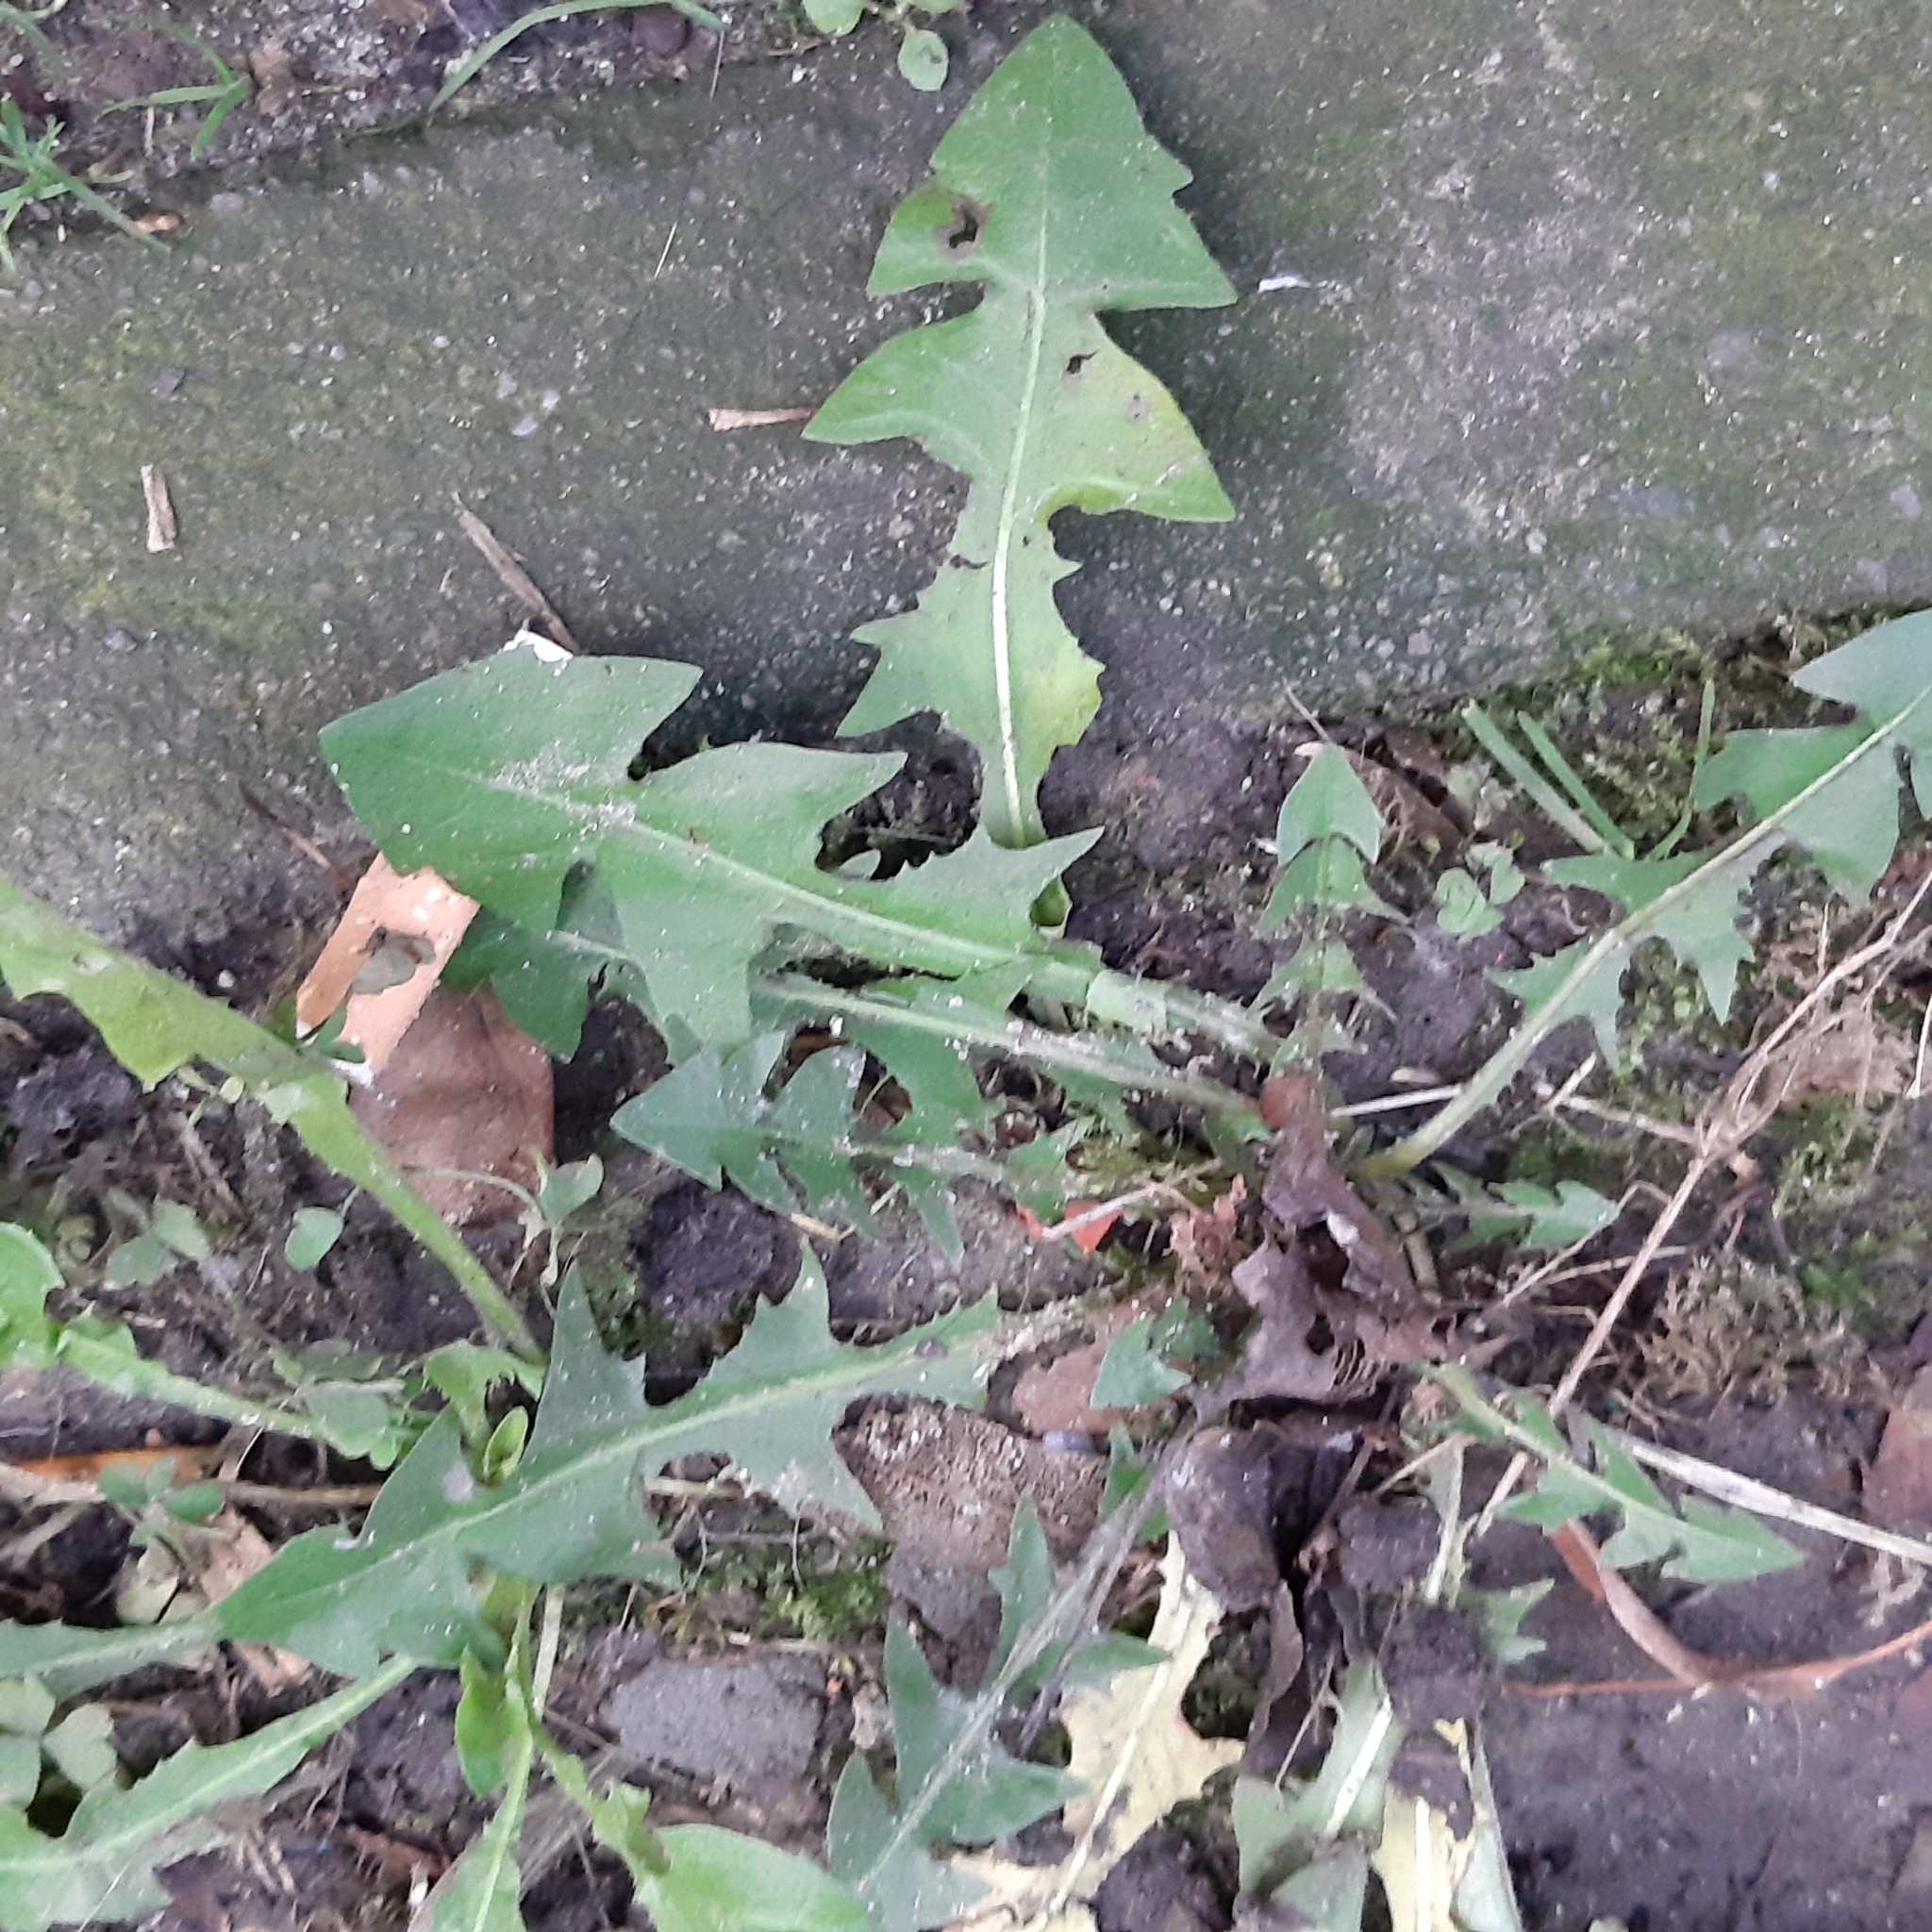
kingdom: Plantae
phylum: Tracheophyta
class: Magnoliopsida
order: Asterales
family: Asteraceae
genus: Taraxacum
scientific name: Taraxacum officinale
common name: Common dandelion
